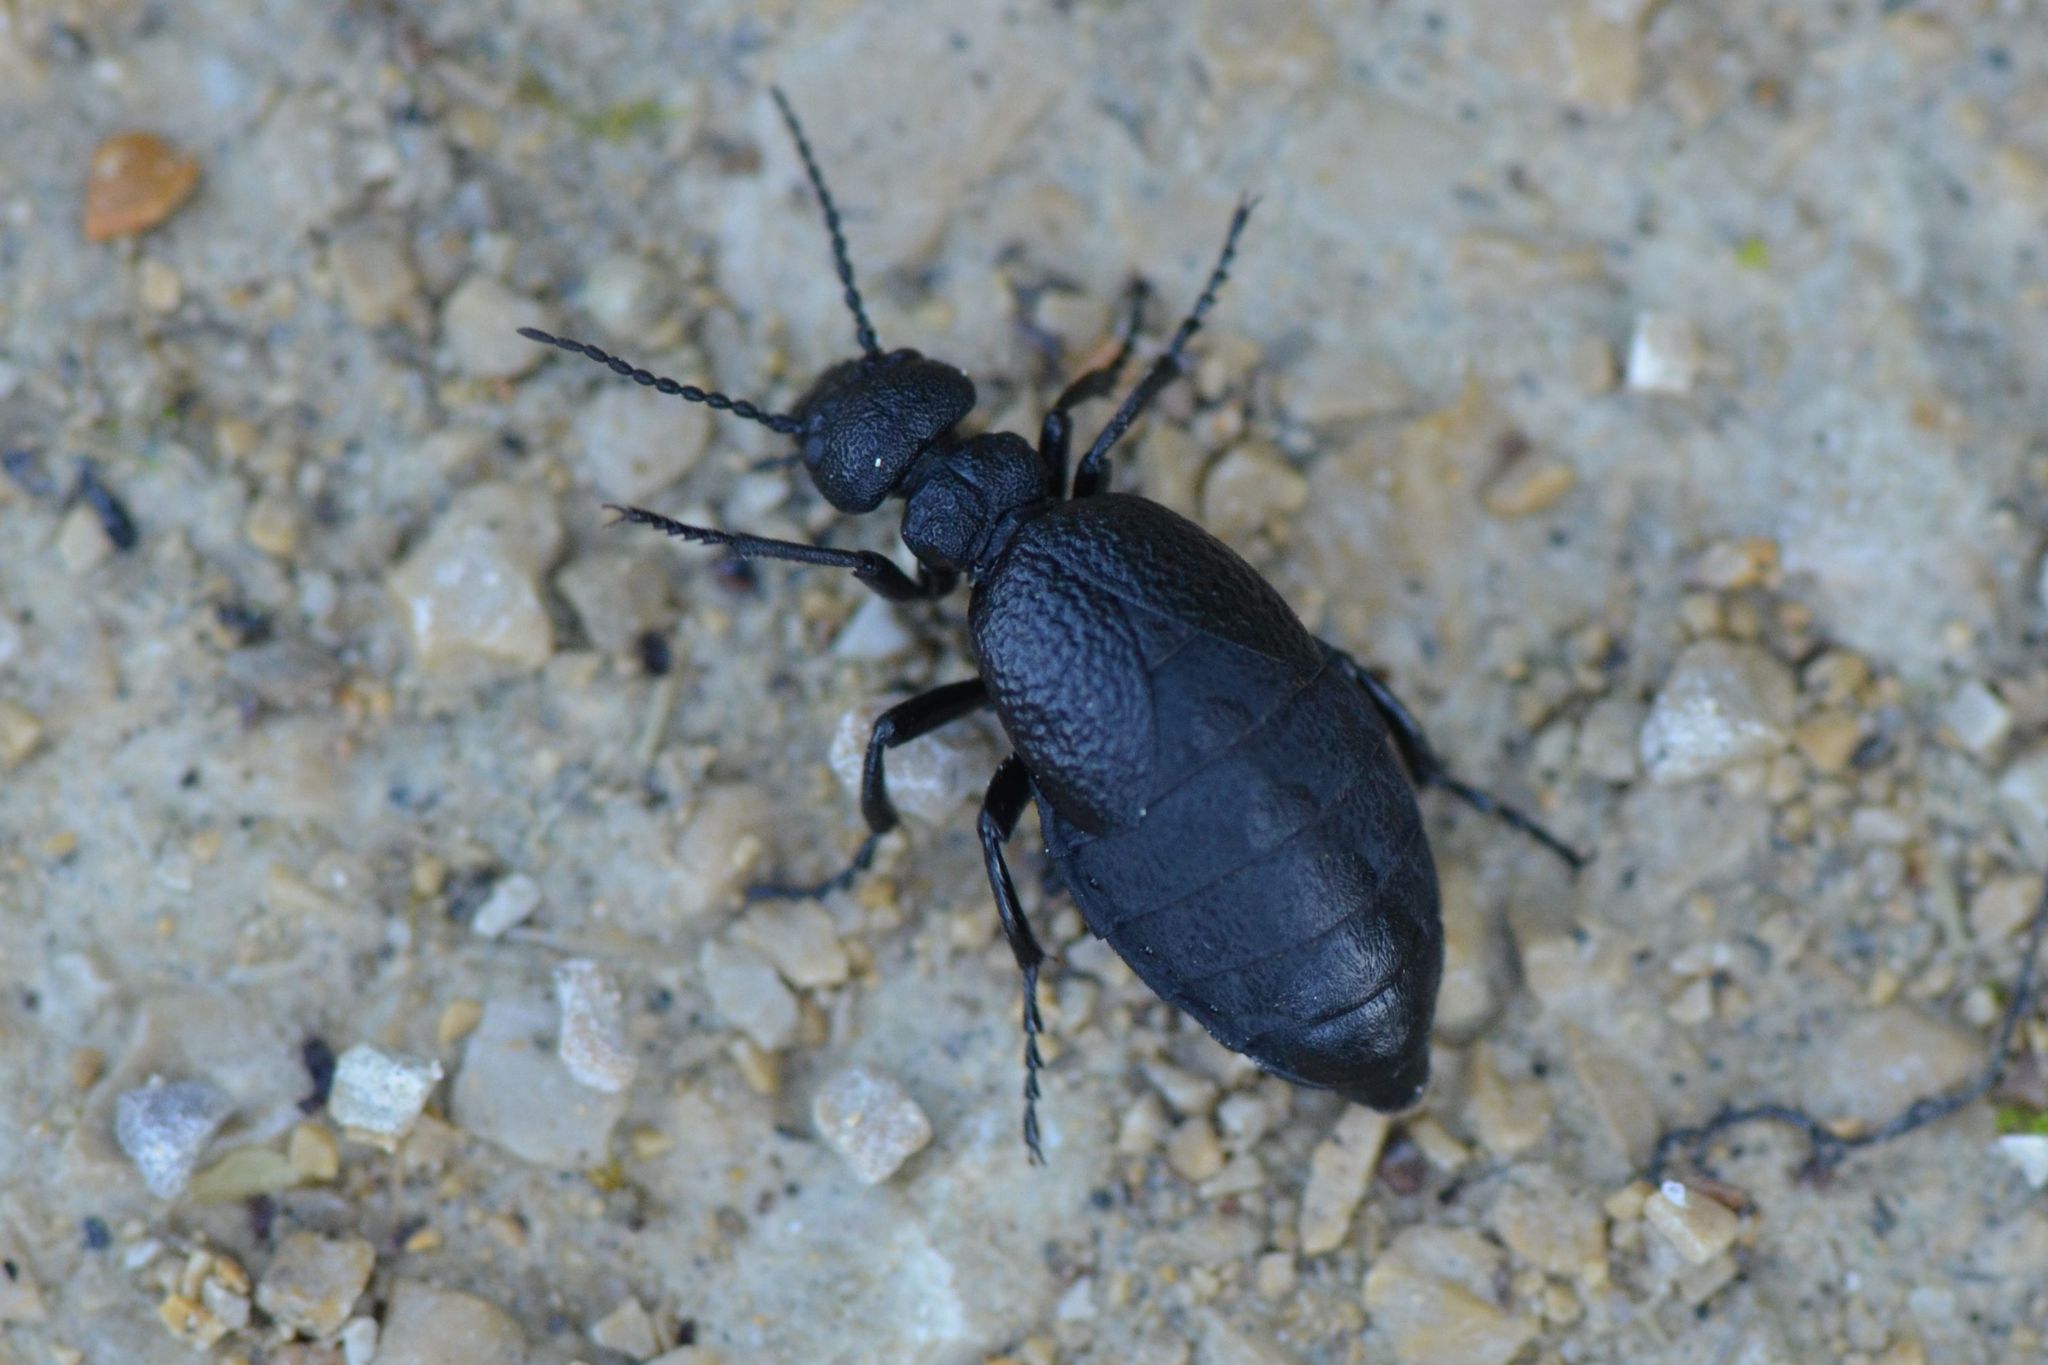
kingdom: Animalia
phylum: Arthropoda
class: Insecta
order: Coleoptera
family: Meloidae
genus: Meloe
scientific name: Meloe rugosus
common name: Rugged oil-beetle
